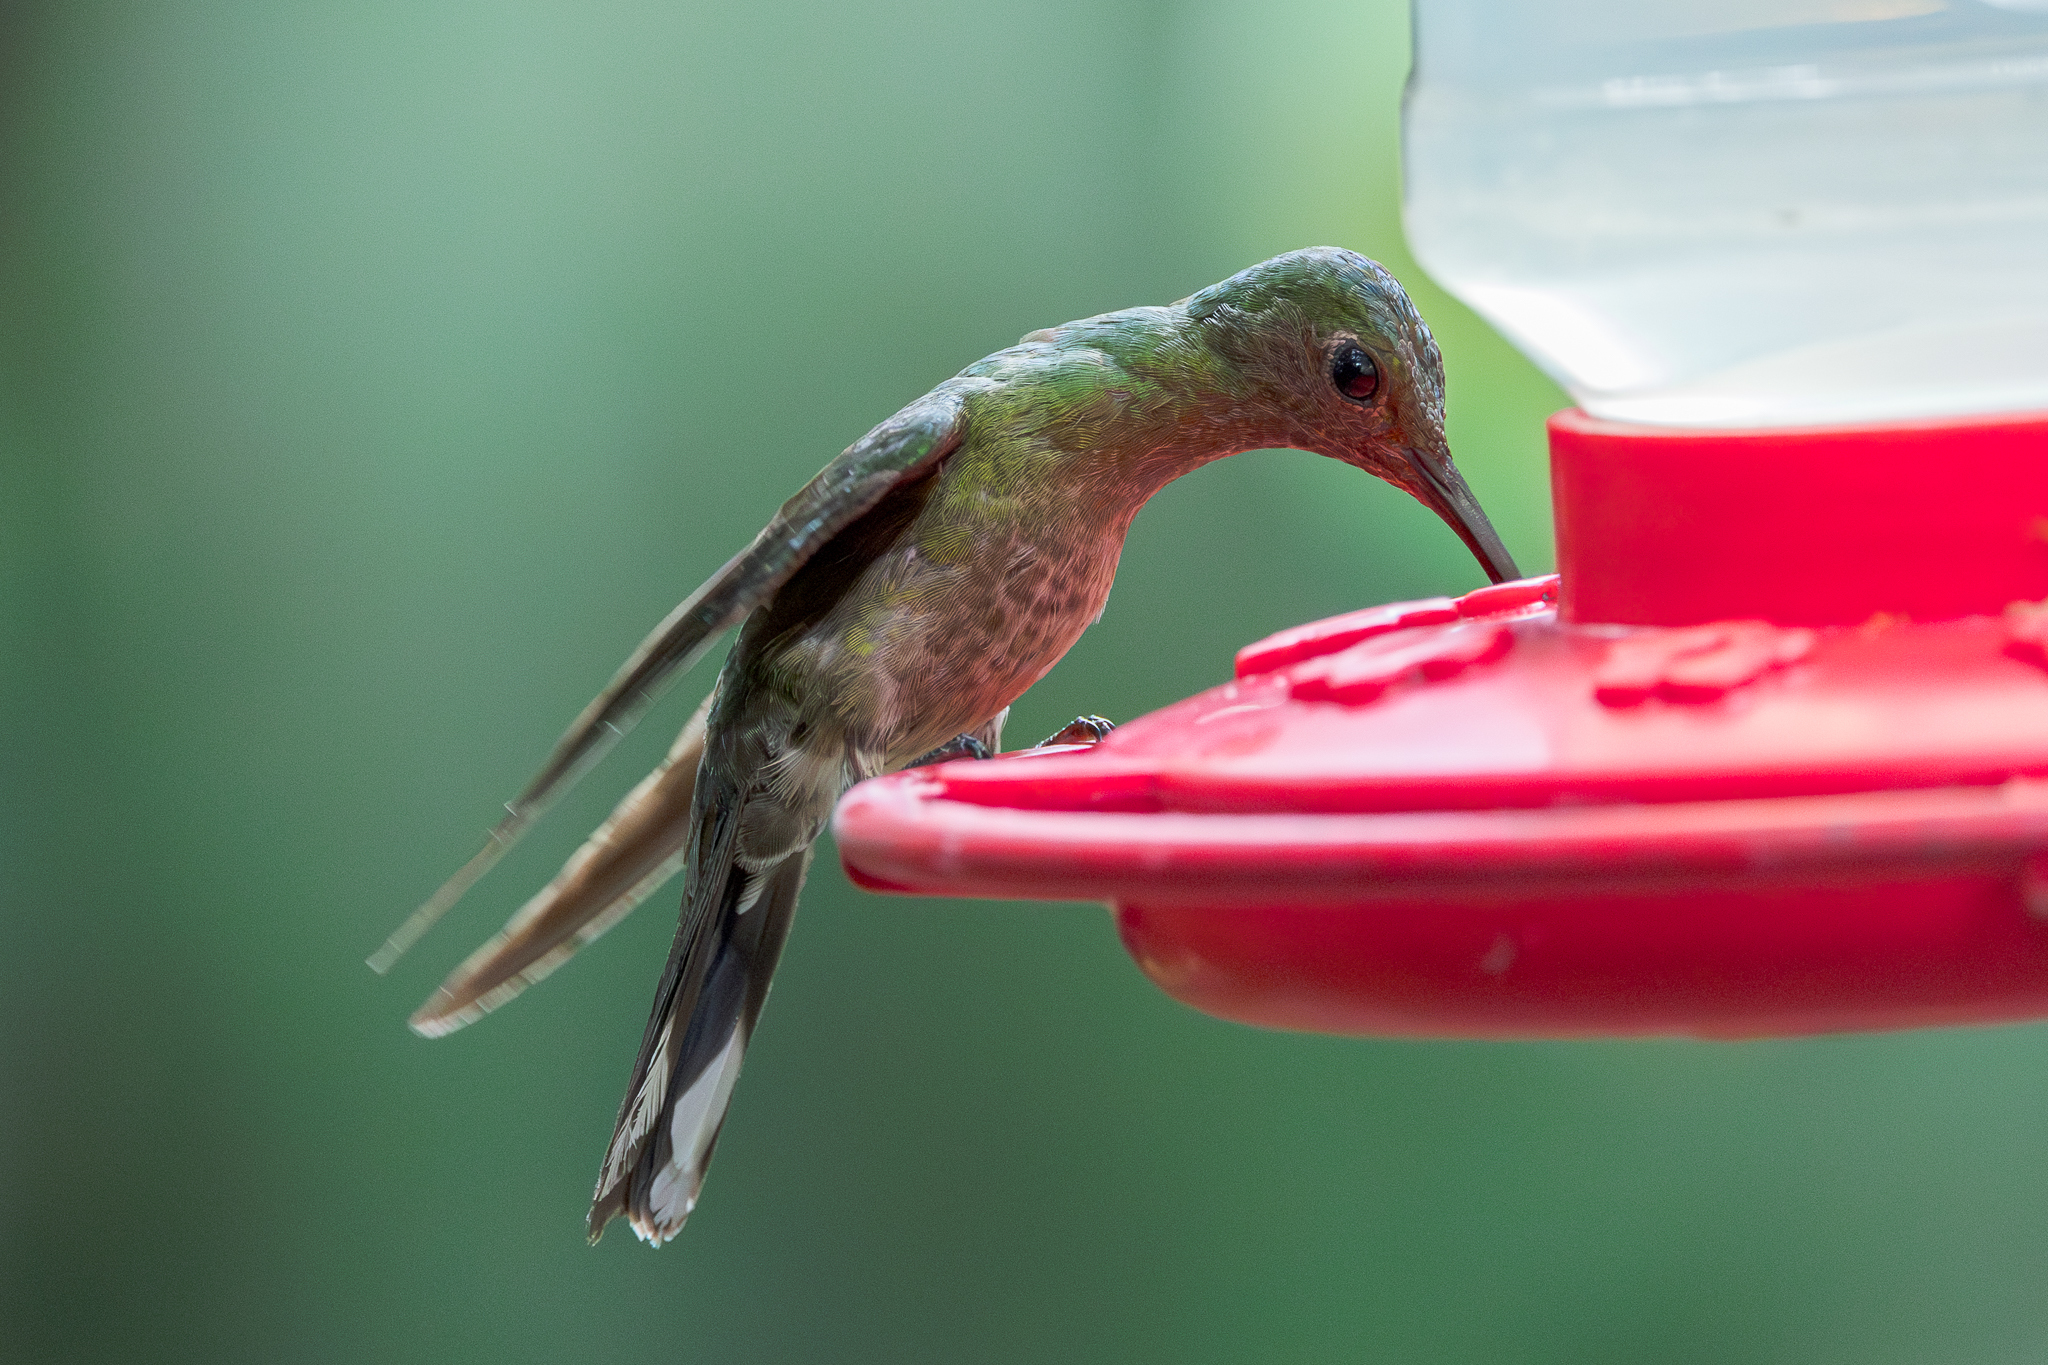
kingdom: Animalia
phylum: Chordata
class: Aves
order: Apodiformes
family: Trochilidae
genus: Phaeochroa
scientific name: Phaeochroa cuvierii
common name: Scaly-breasted hummingbird
